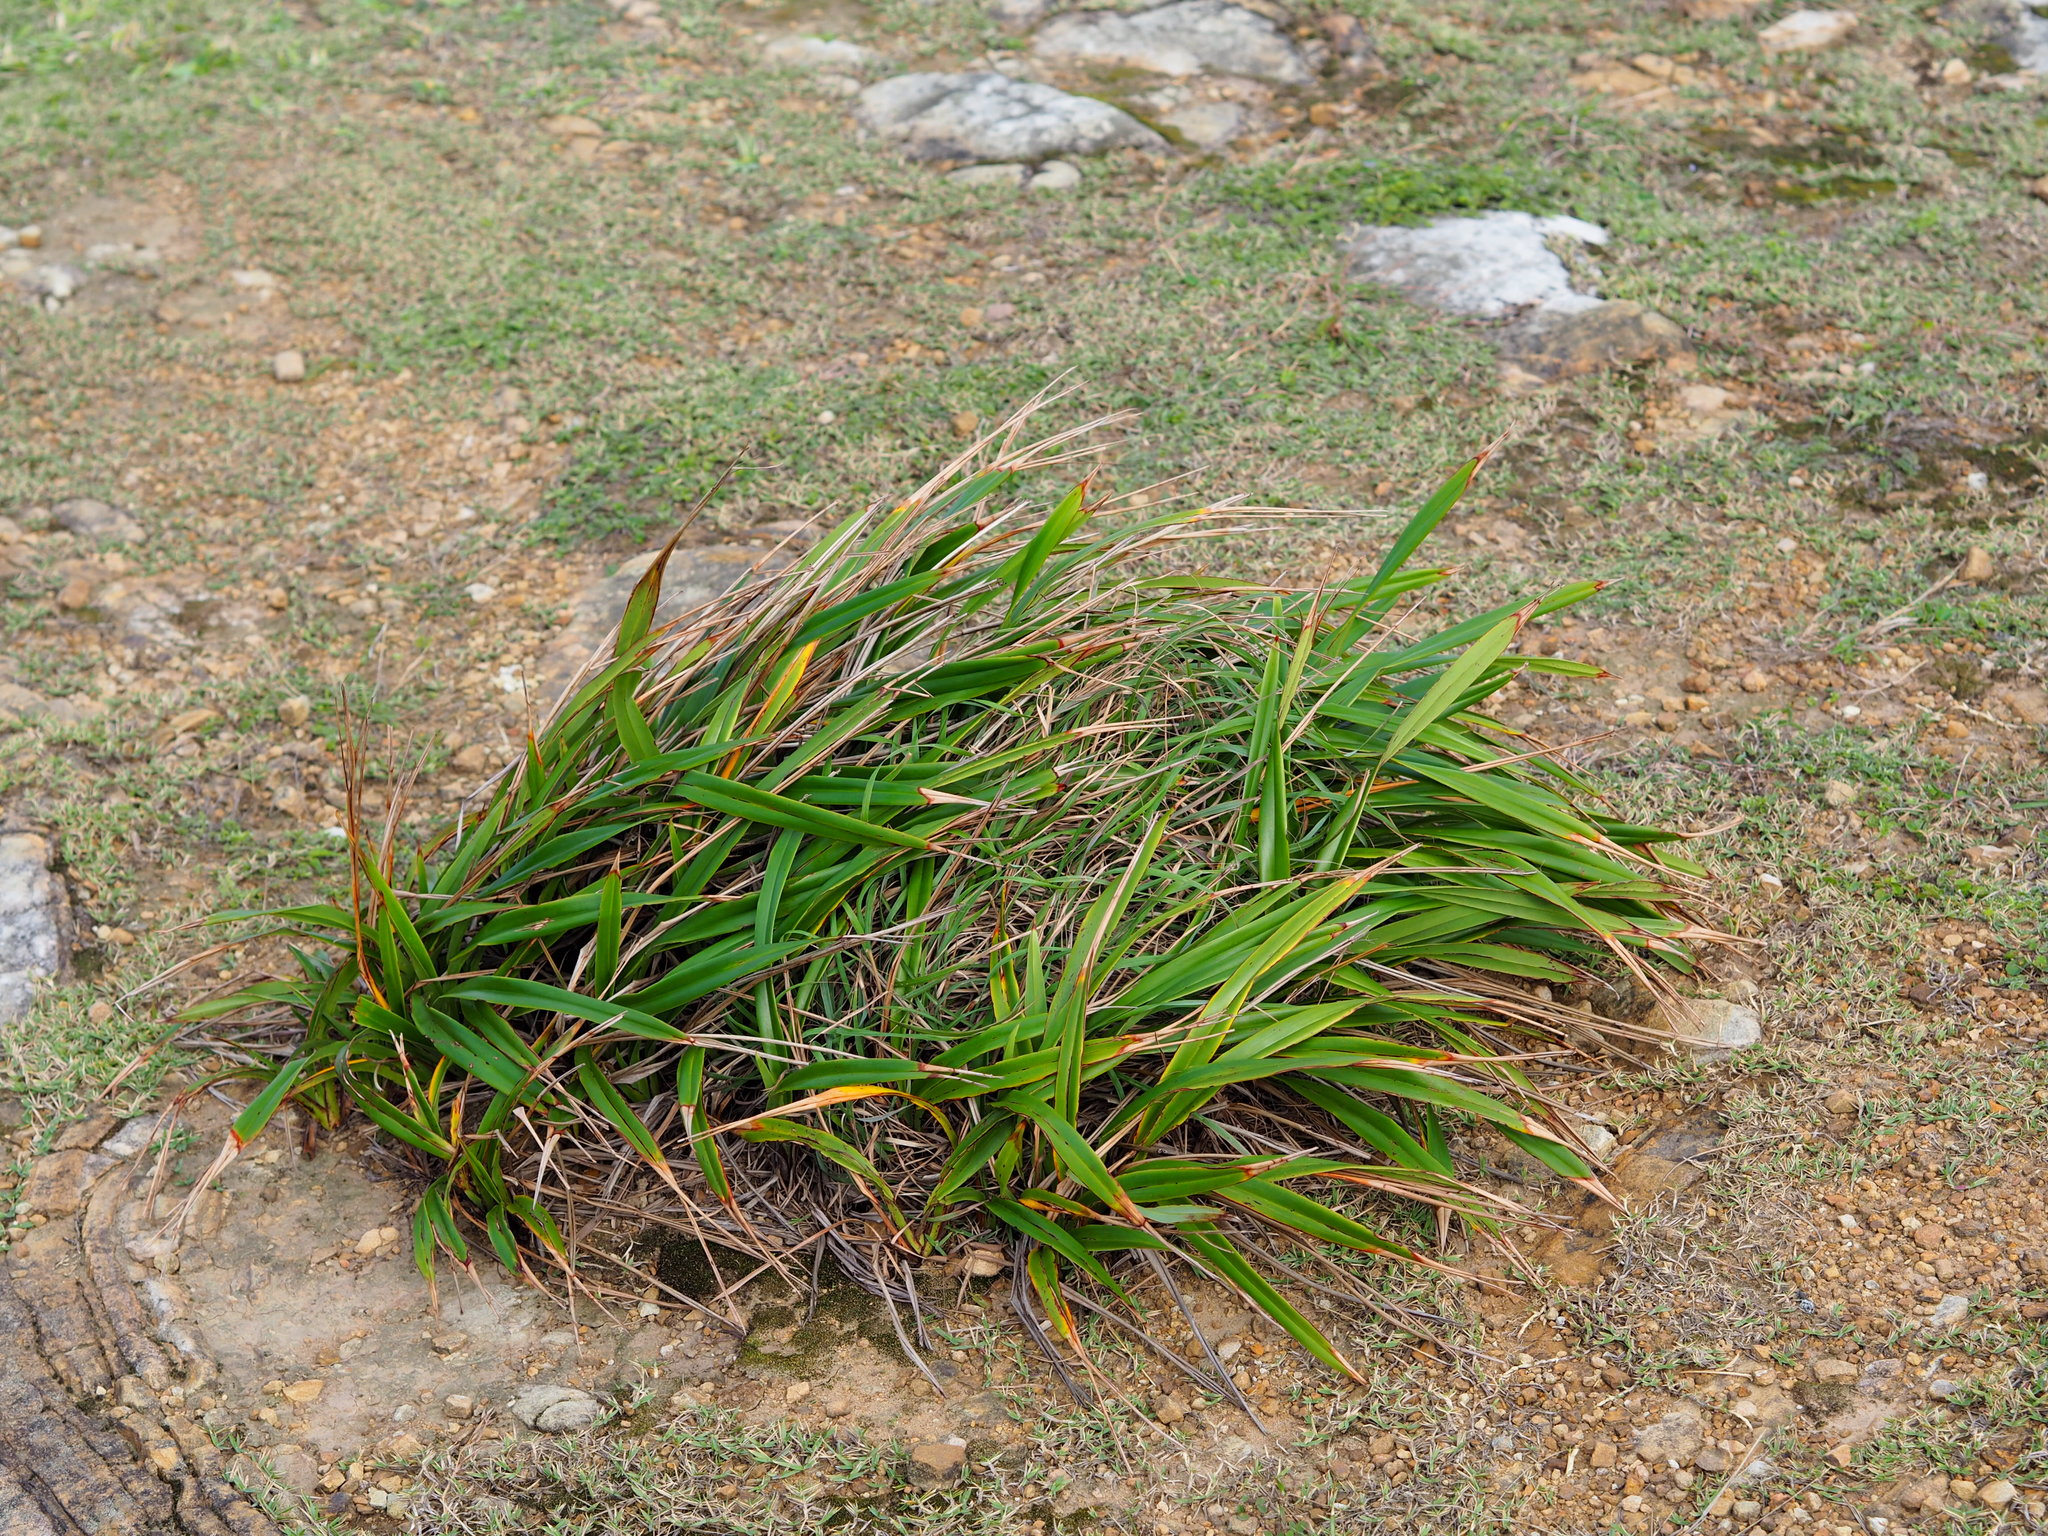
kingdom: Plantae
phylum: Tracheophyta
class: Liliopsida
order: Asparagales
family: Asphodelaceae
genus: Dianella
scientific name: Dianella ensifolia
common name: New zealand lilyplant
